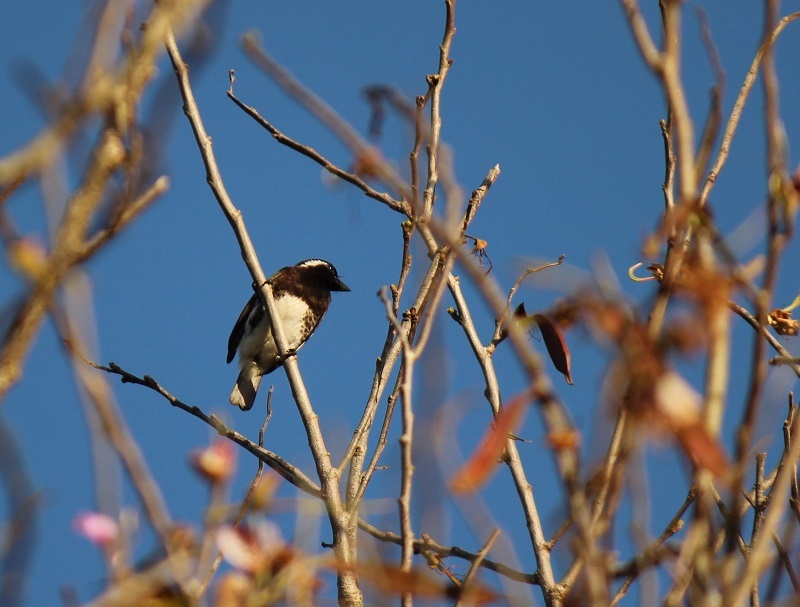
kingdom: Animalia
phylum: Chordata
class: Aves
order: Piciformes
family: Lybiidae
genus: Stactolaema
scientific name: Stactolaema leucotis
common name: White-eared barbet
